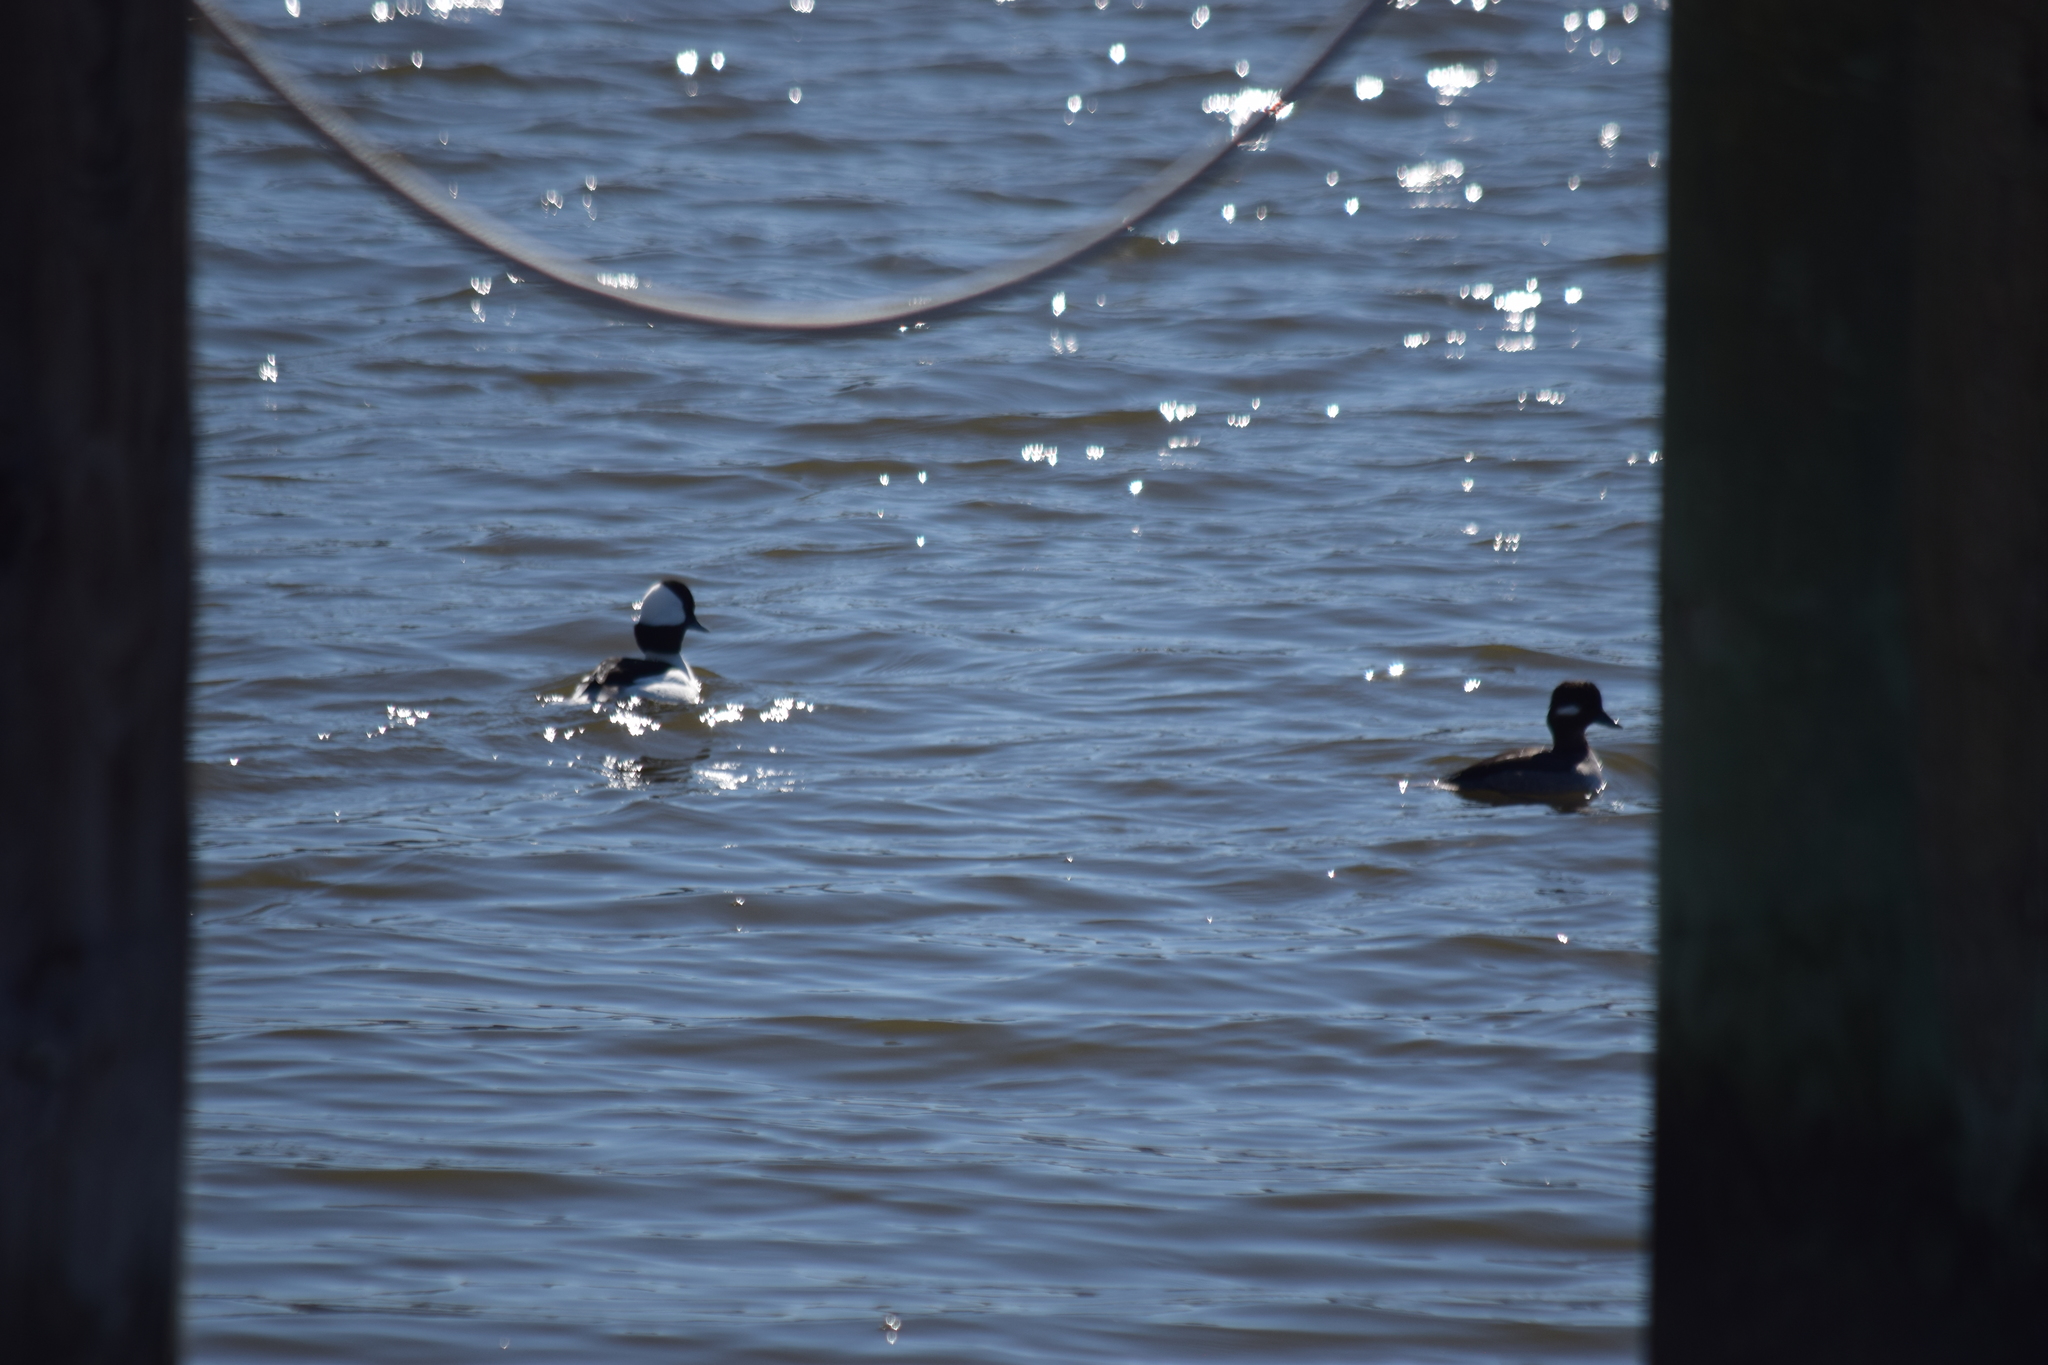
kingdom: Animalia
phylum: Chordata
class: Aves
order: Anseriformes
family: Anatidae
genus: Bucephala
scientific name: Bucephala albeola
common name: Bufflehead
